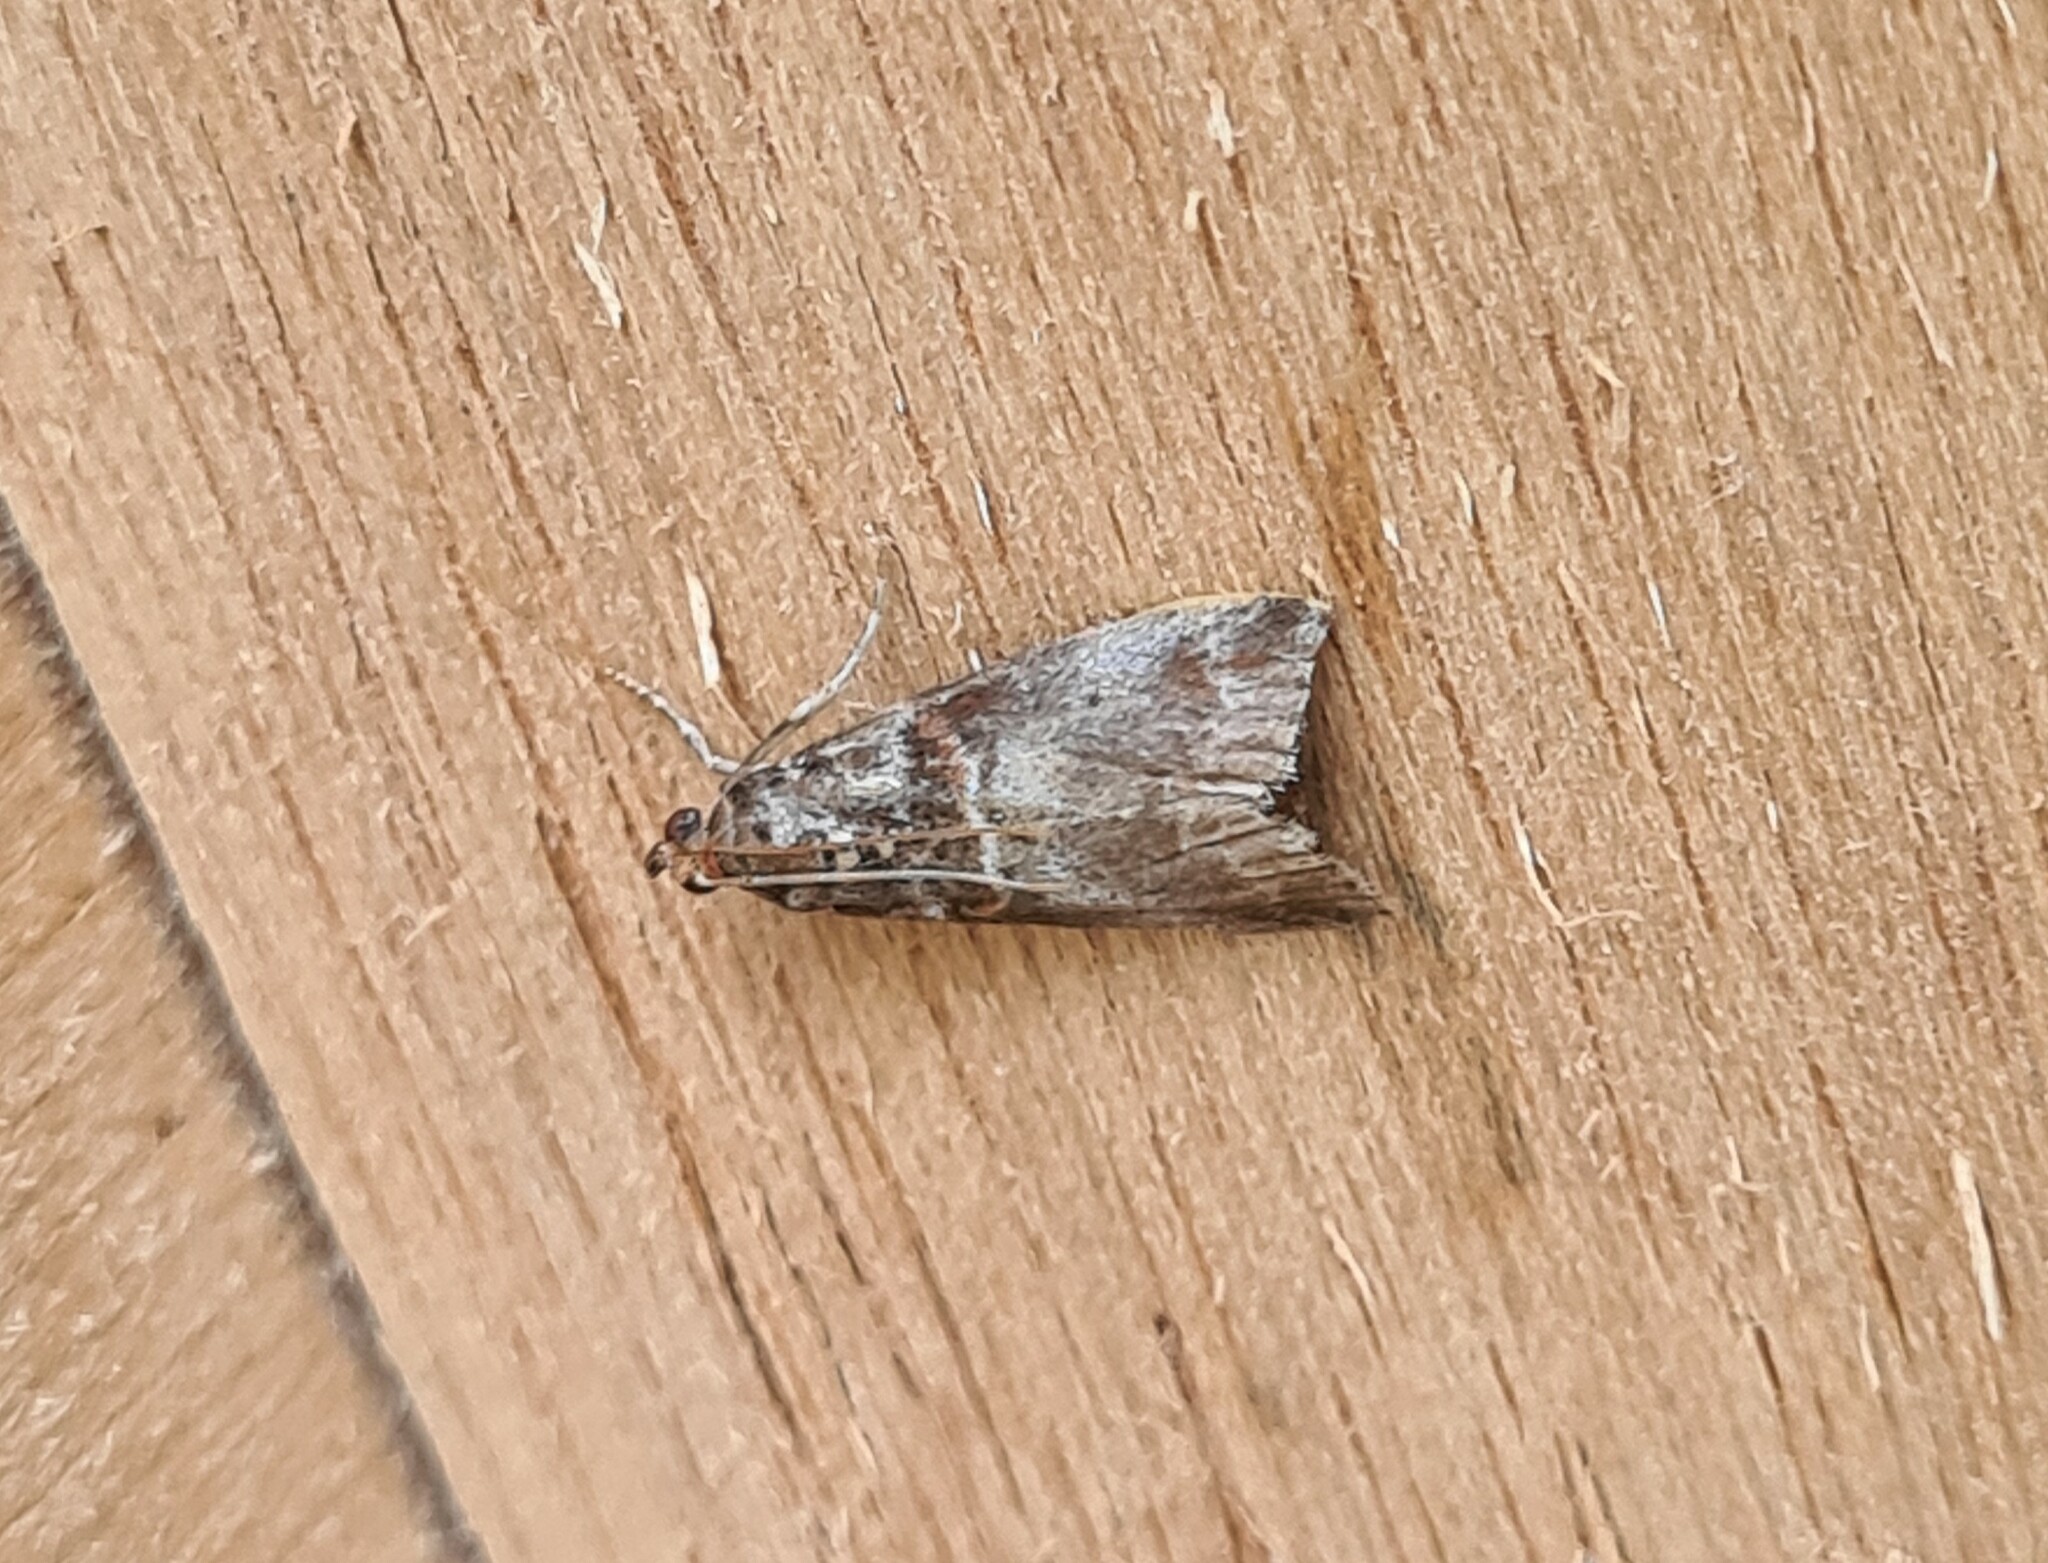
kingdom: Animalia
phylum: Arthropoda
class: Insecta
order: Lepidoptera
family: Pyralidae
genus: Acrobasis
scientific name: Acrobasis advenella
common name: Grey knot-horn
